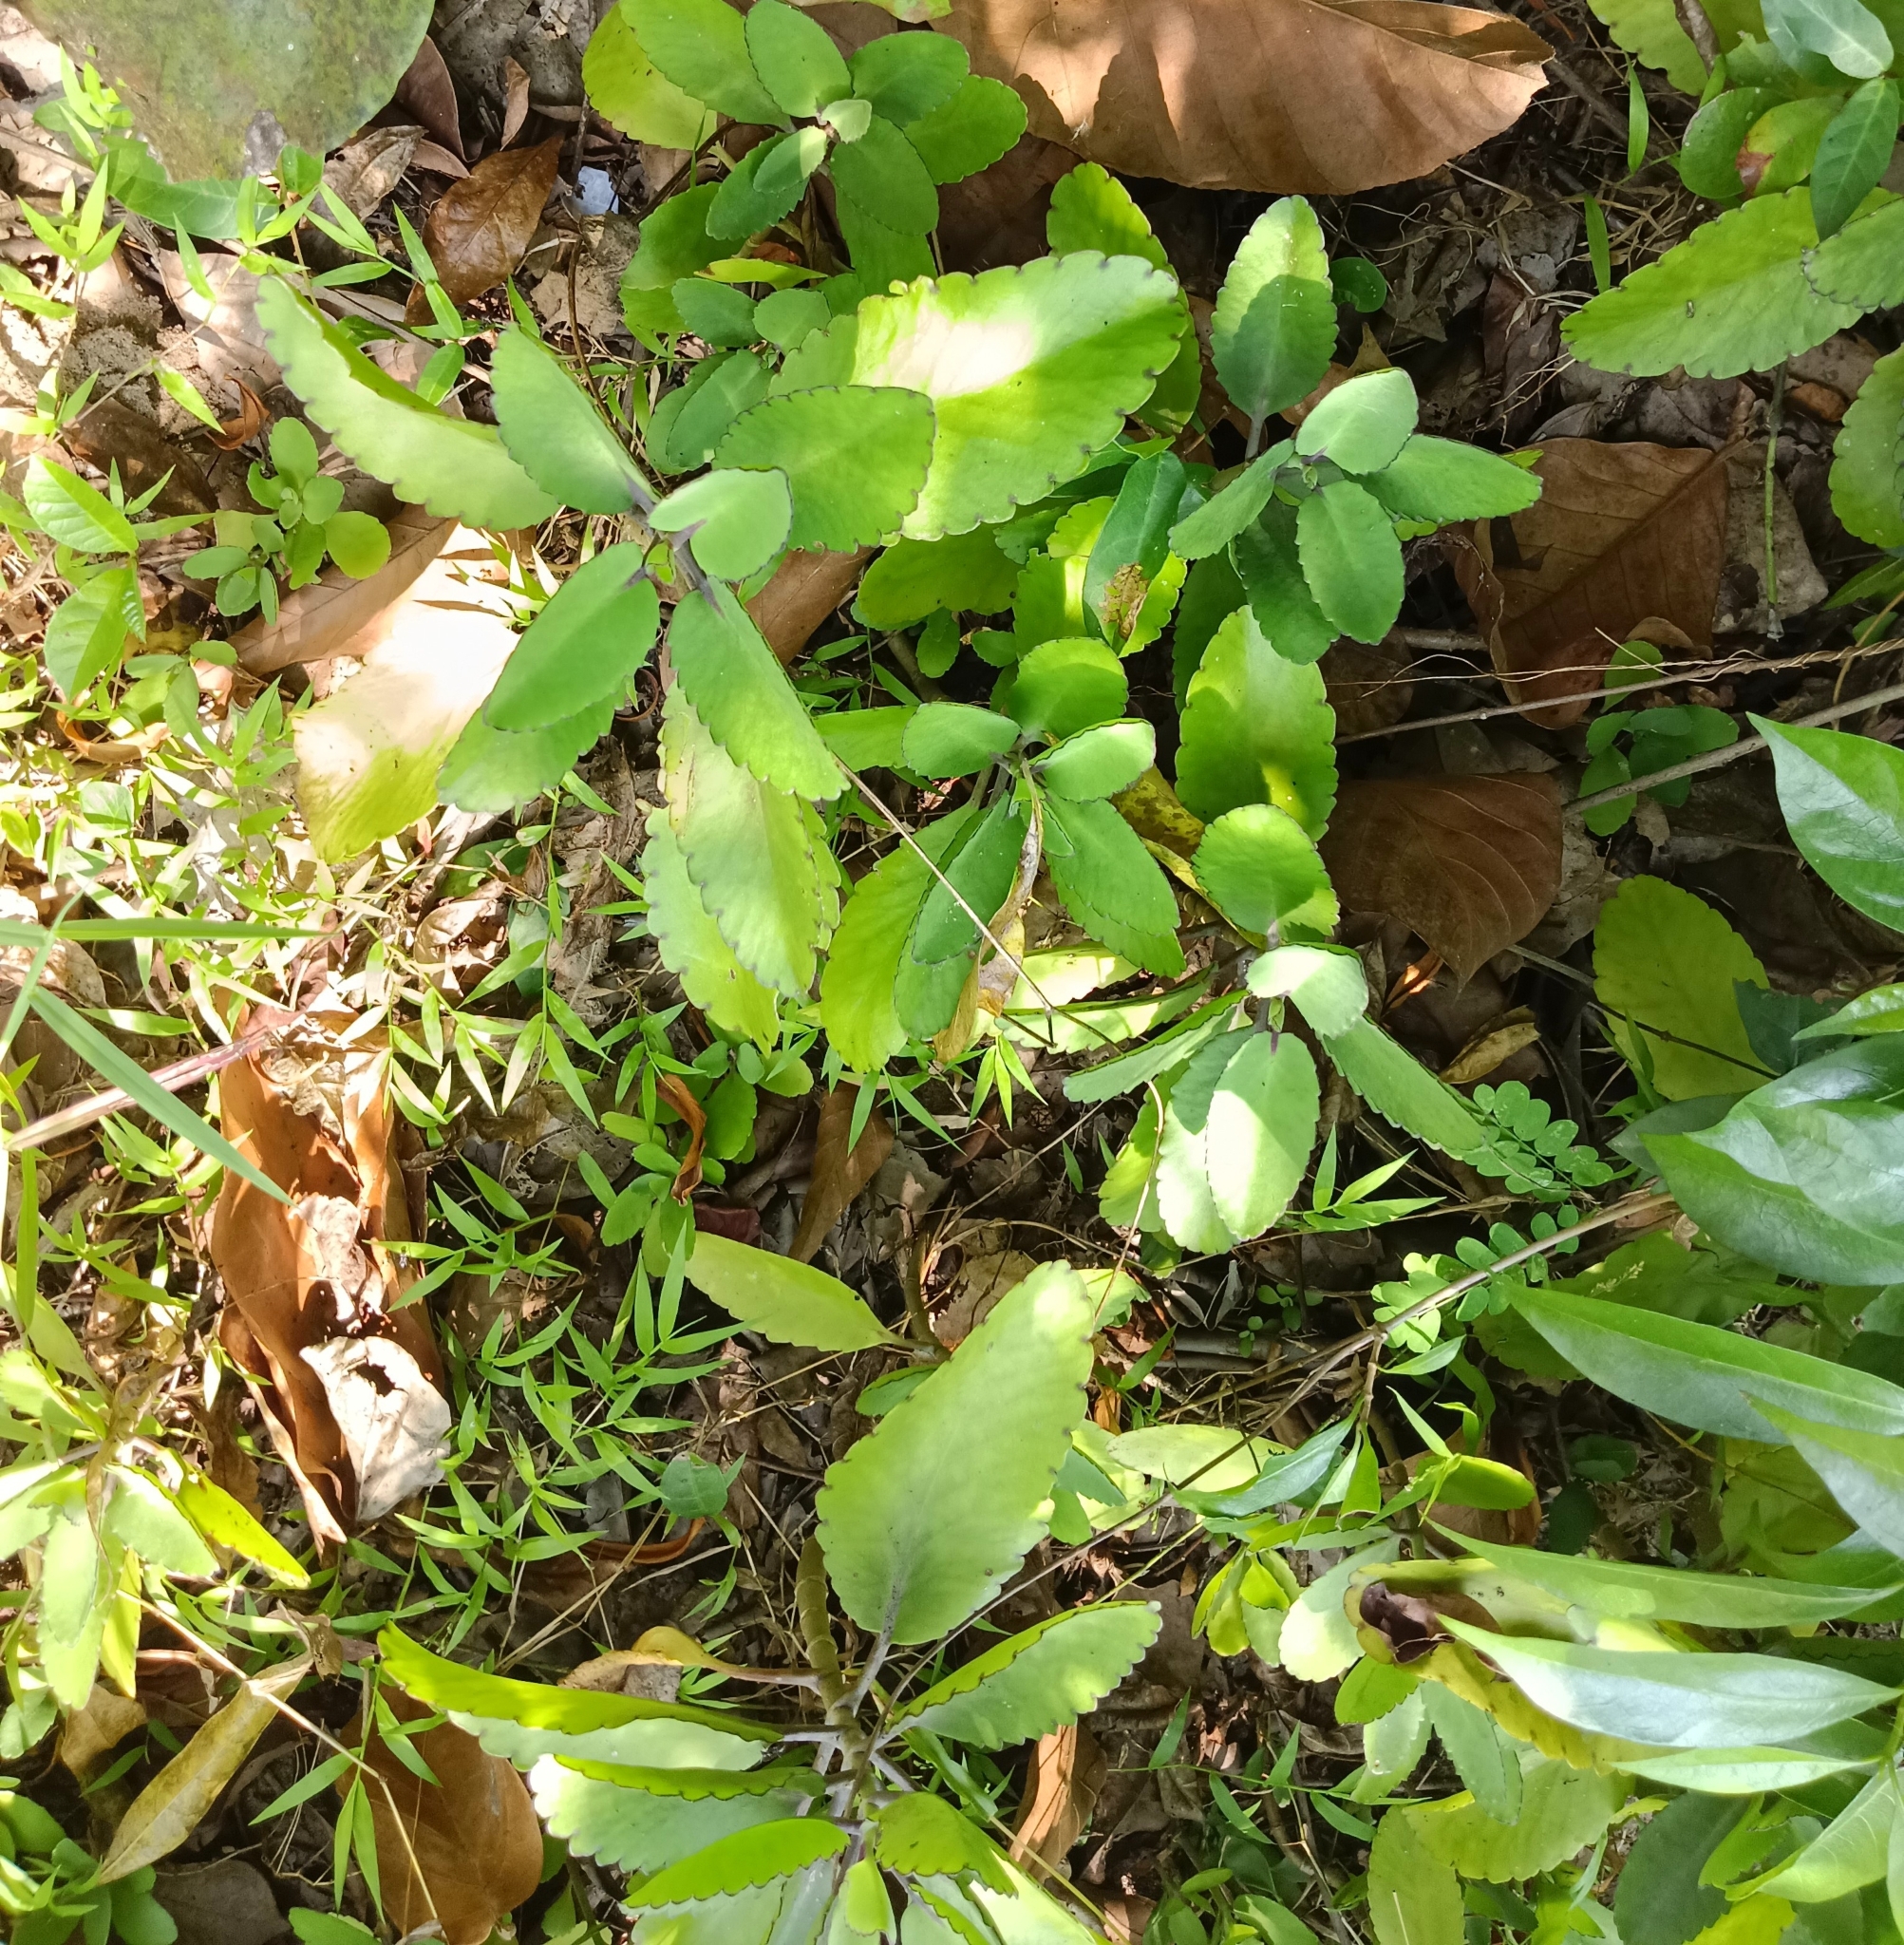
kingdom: Plantae
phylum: Tracheophyta
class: Magnoliopsida
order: Saxifragales
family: Crassulaceae
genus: Kalanchoe
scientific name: Kalanchoe pinnata
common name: Cathedral bells
